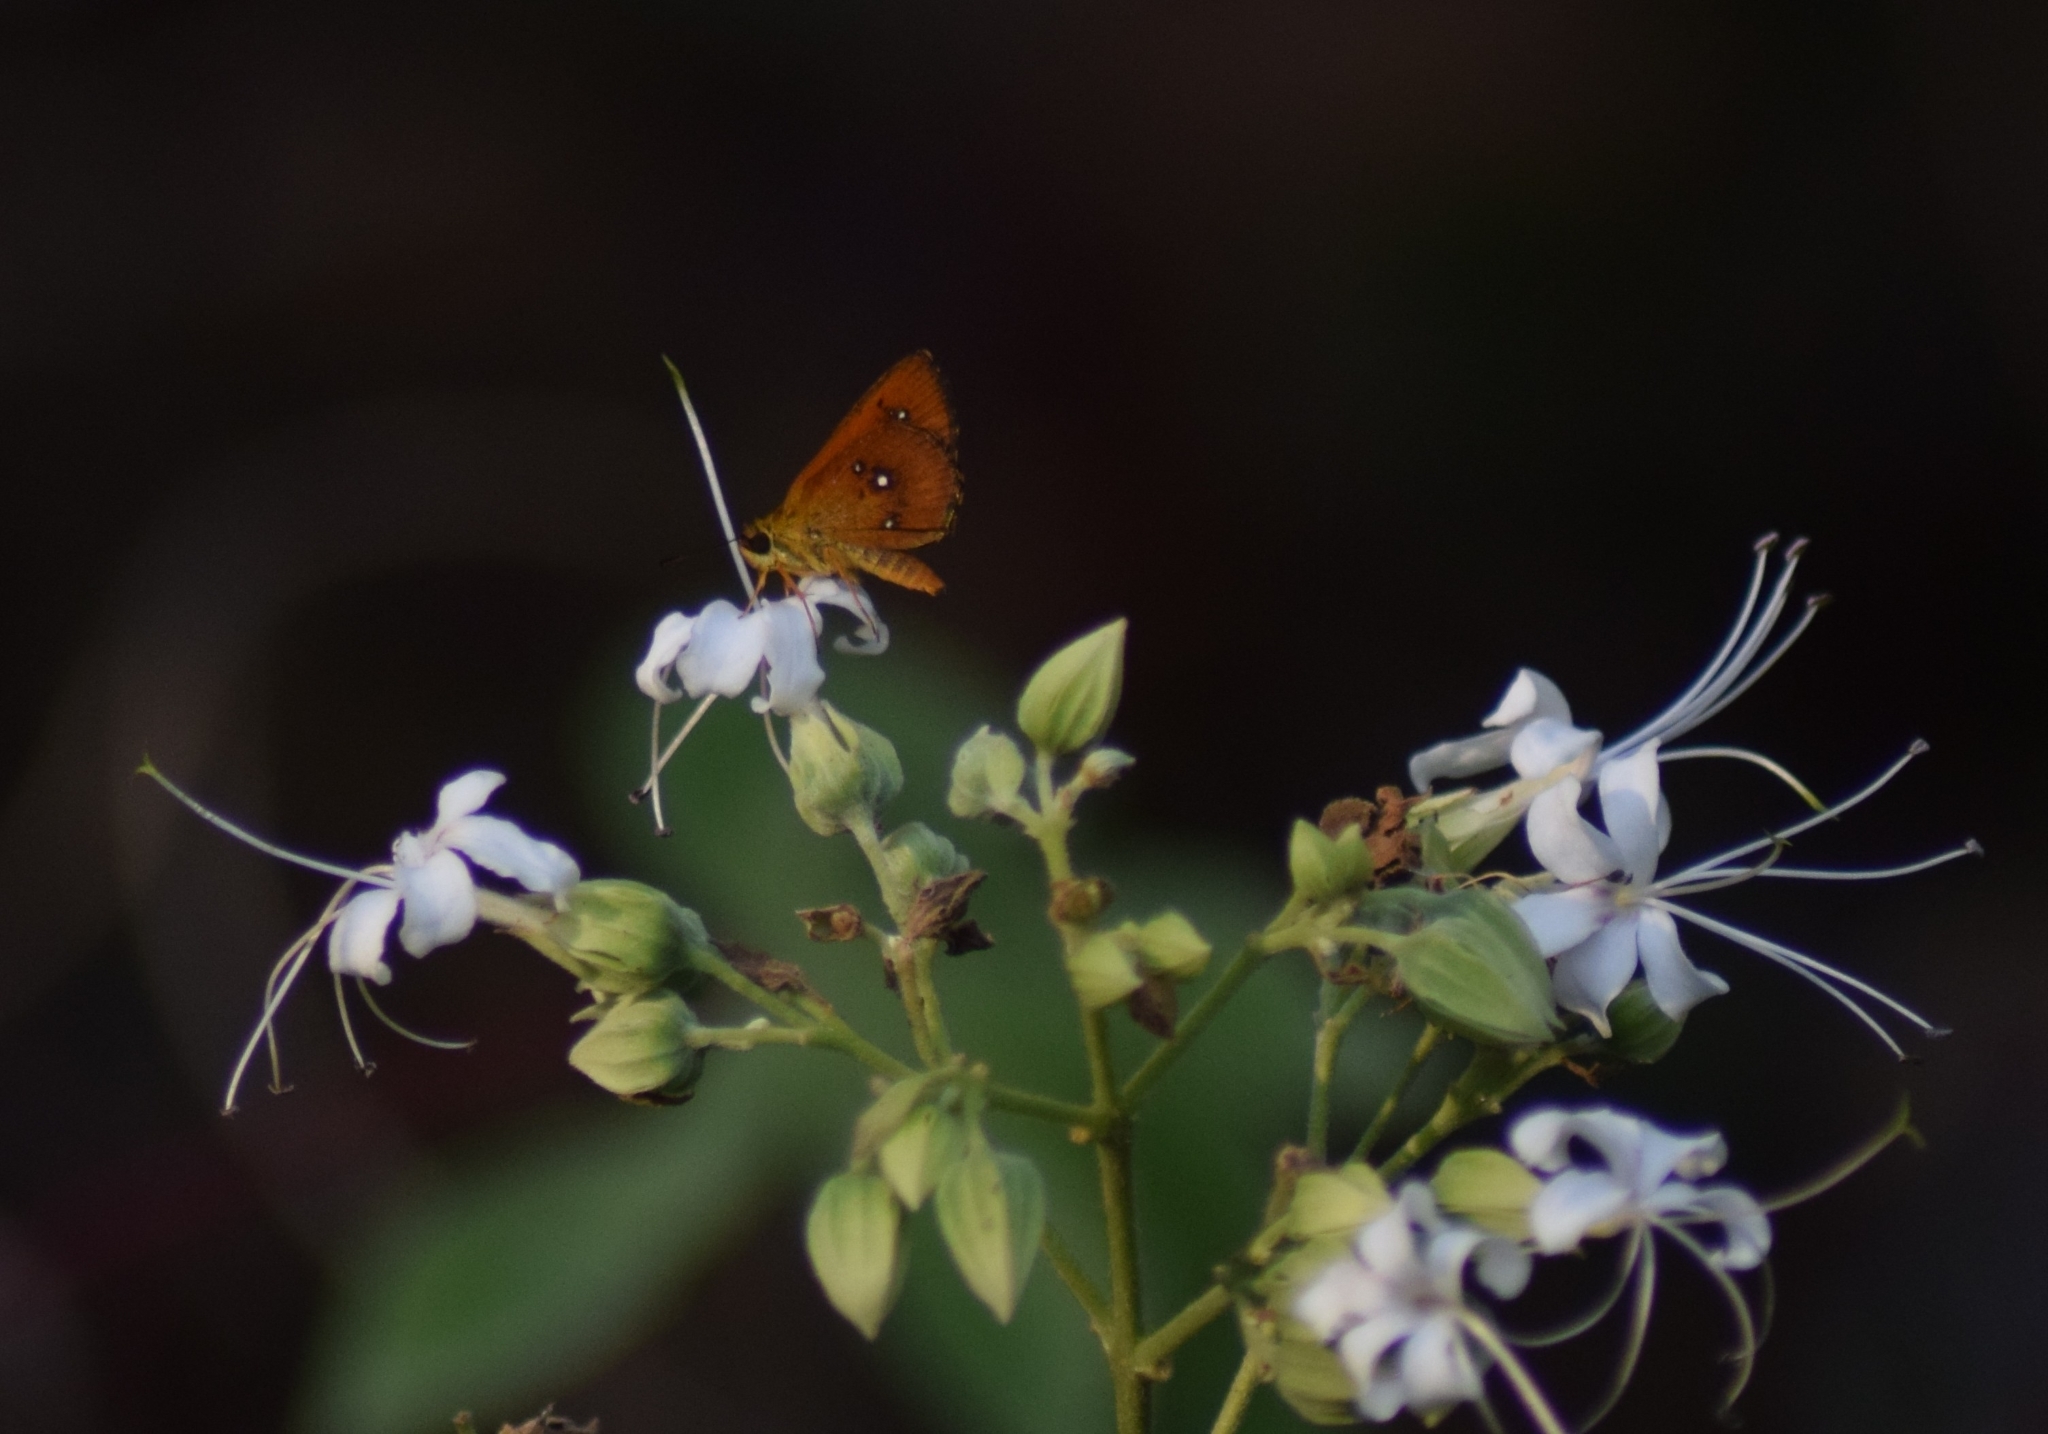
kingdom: Animalia
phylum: Arthropoda
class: Insecta
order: Lepidoptera
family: Hesperiidae
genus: Iambrix
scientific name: Iambrix salsala
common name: Chestnut bob
